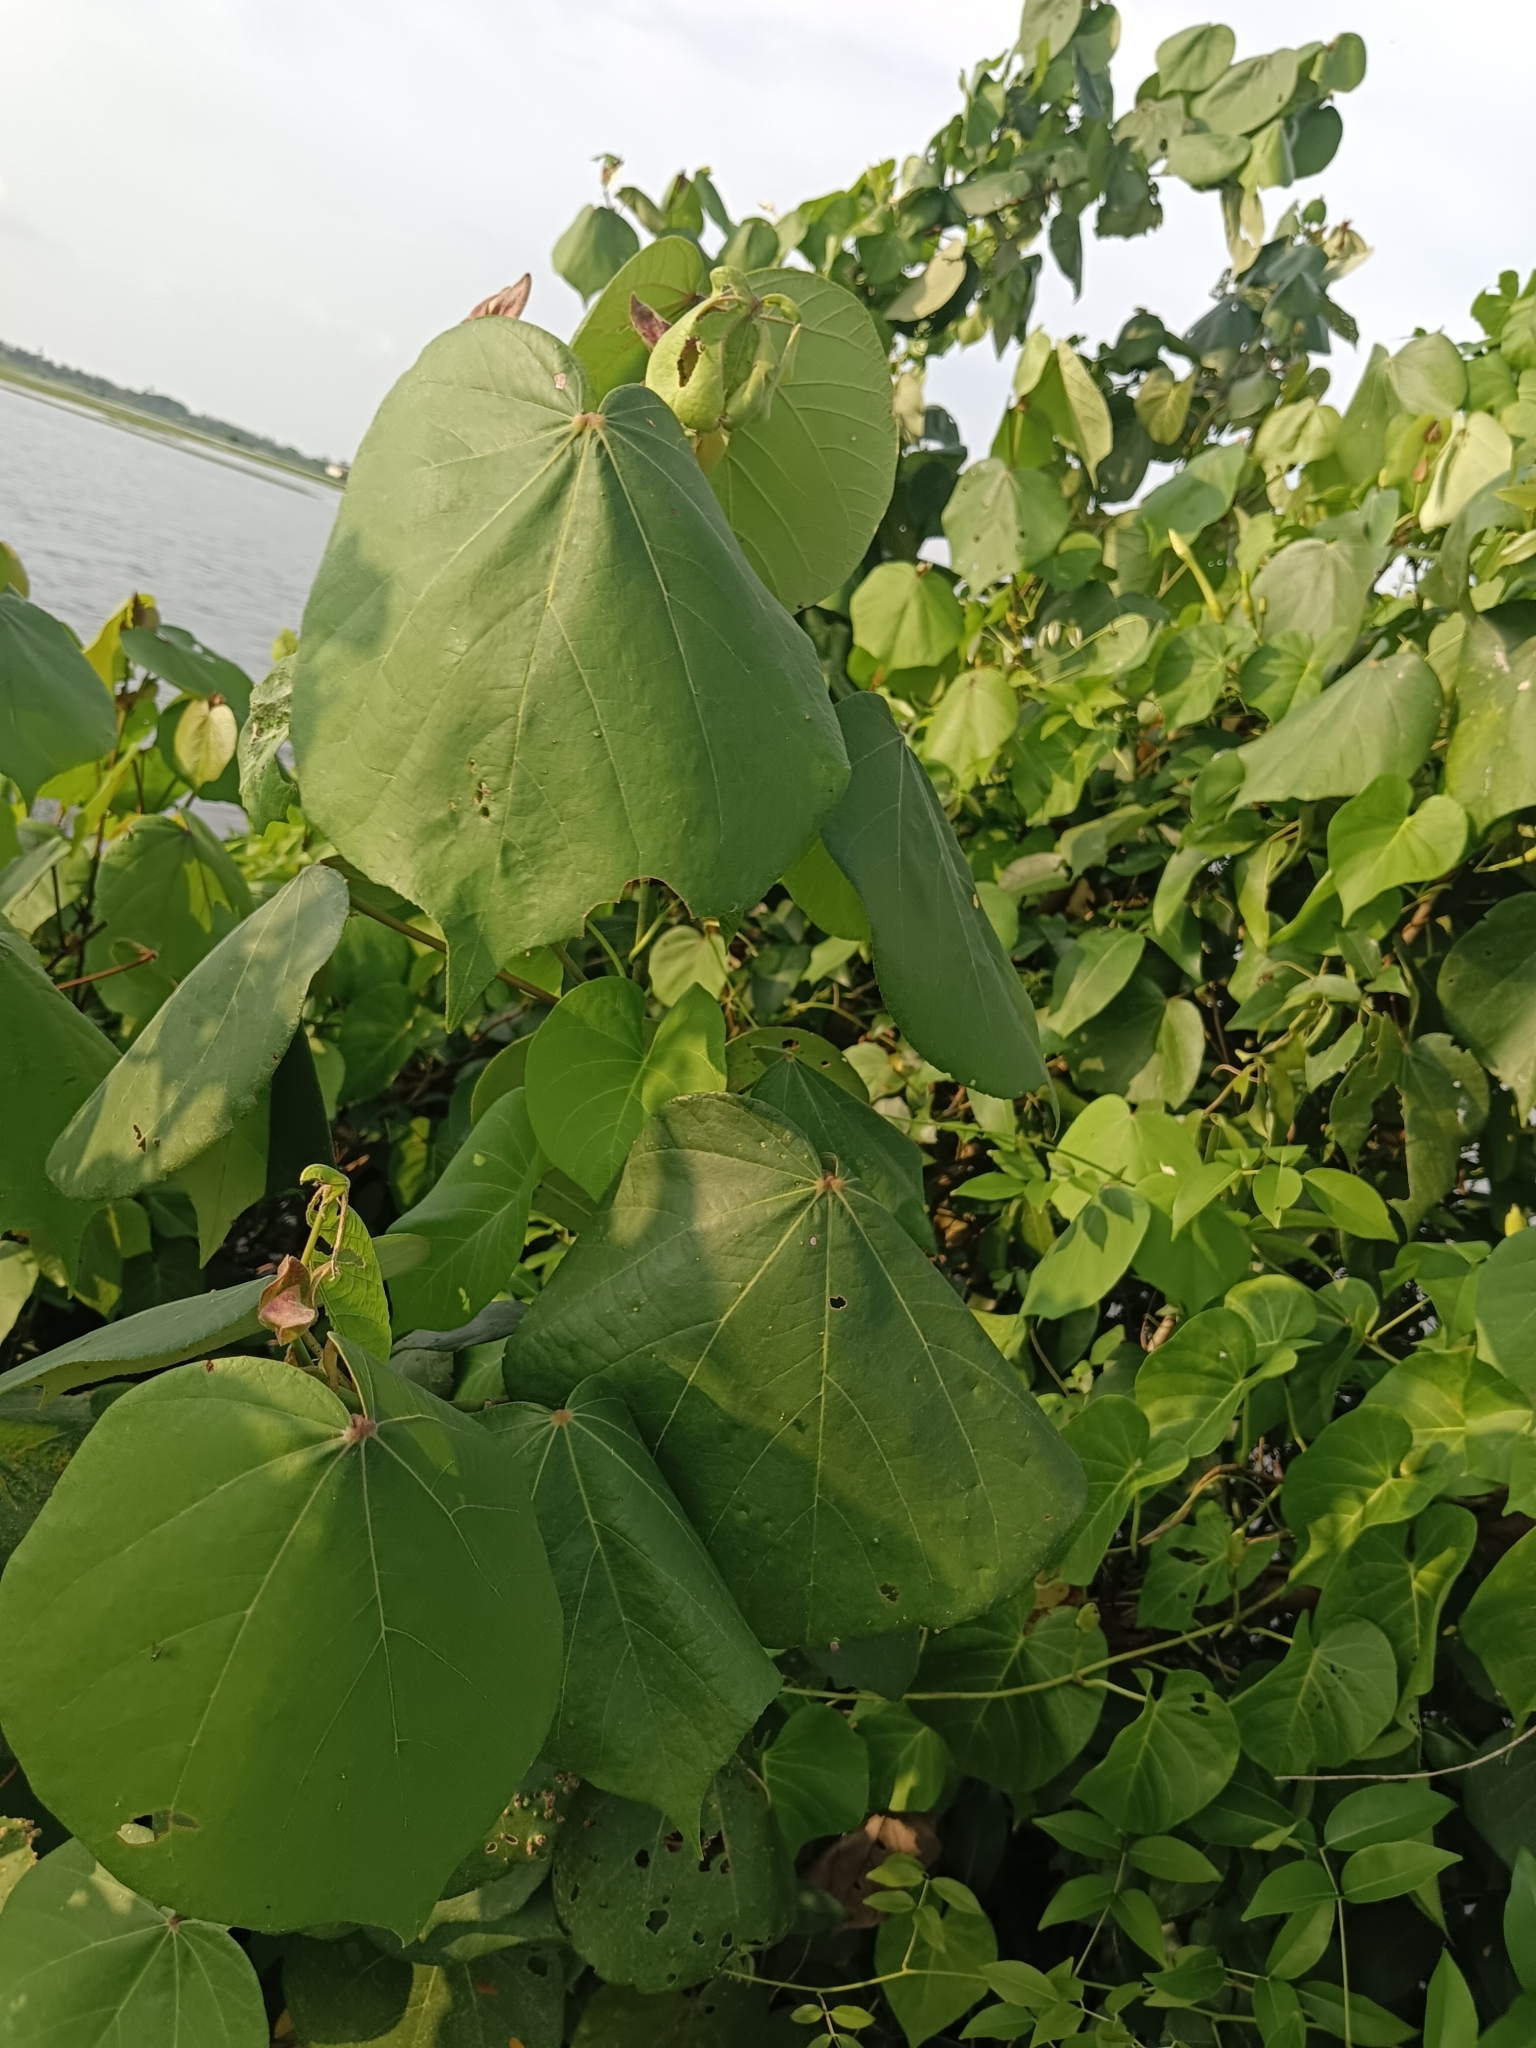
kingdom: Plantae
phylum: Tracheophyta
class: Magnoliopsida
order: Malvales
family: Malvaceae
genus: Talipariti
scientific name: Talipariti tiliaceum
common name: Sea hibiscus
